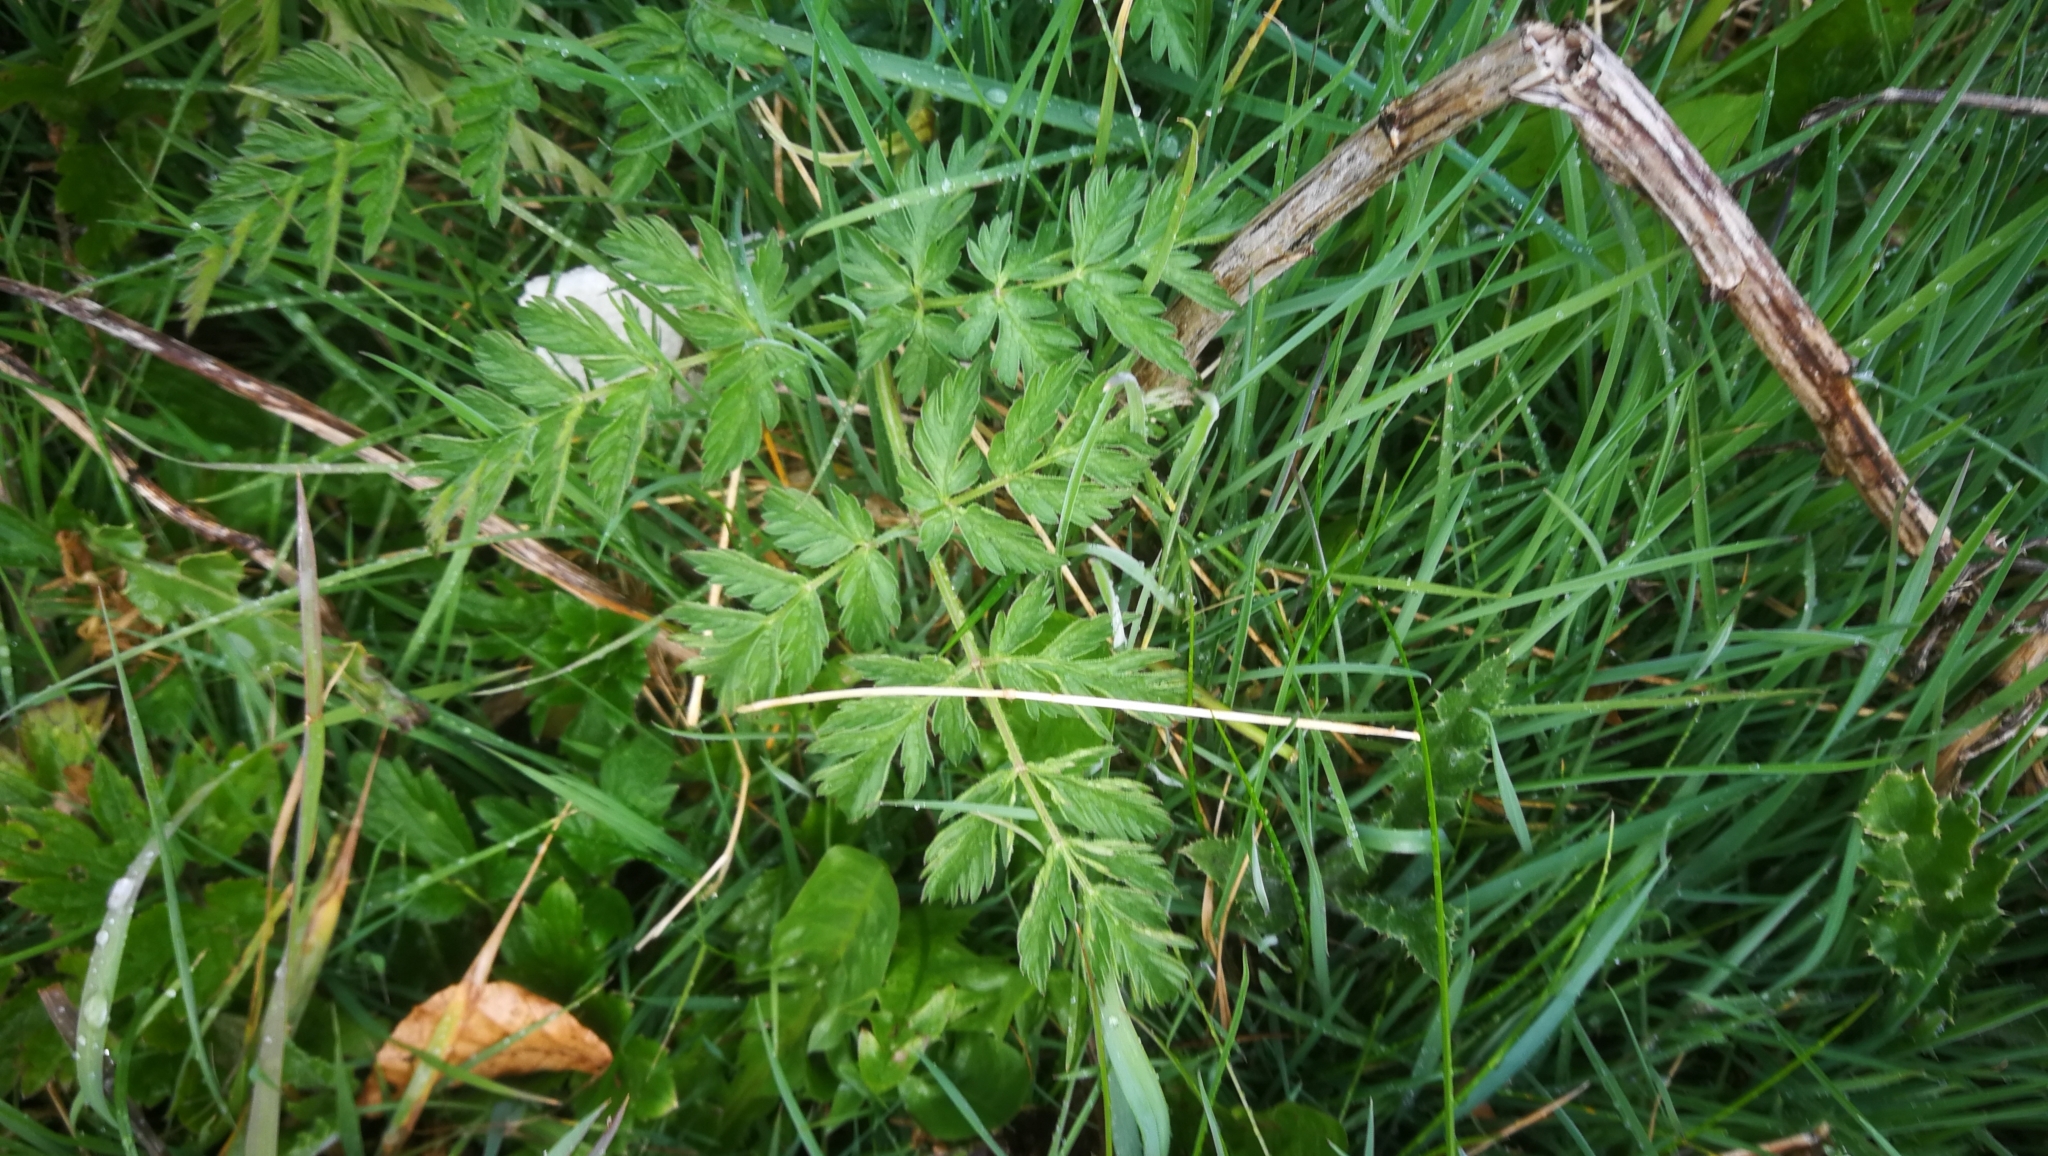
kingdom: Plantae
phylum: Tracheophyta
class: Magnoliopsida
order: Apiales
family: Apiaceae
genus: Anthriscus
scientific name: Anthriscus sylvestris
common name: Cow parsley
